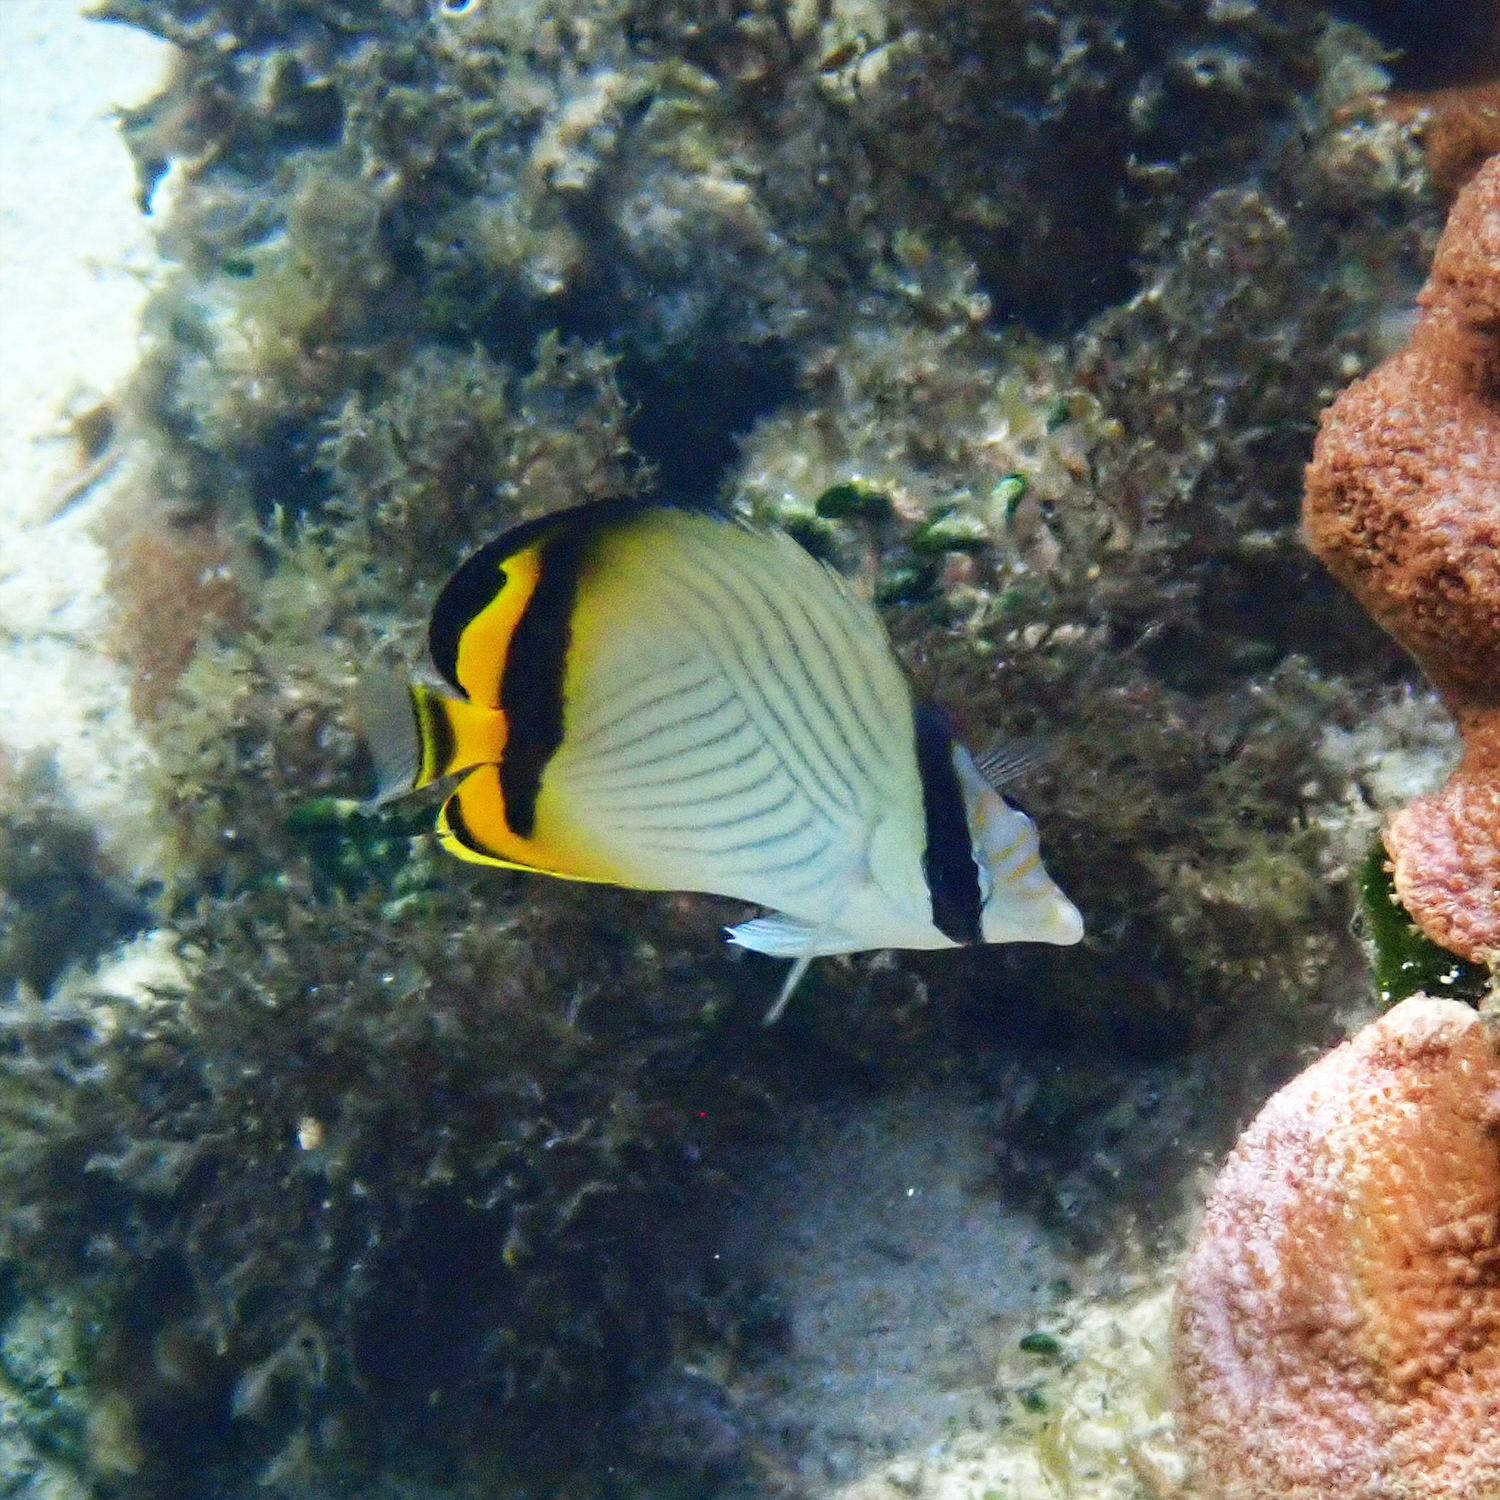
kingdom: Animalia
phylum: Chordata
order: Perciformes
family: Chaetodontidae
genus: Chaetodon
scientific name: Chaetodon vagabundus
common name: Vagabond butterflyfish
